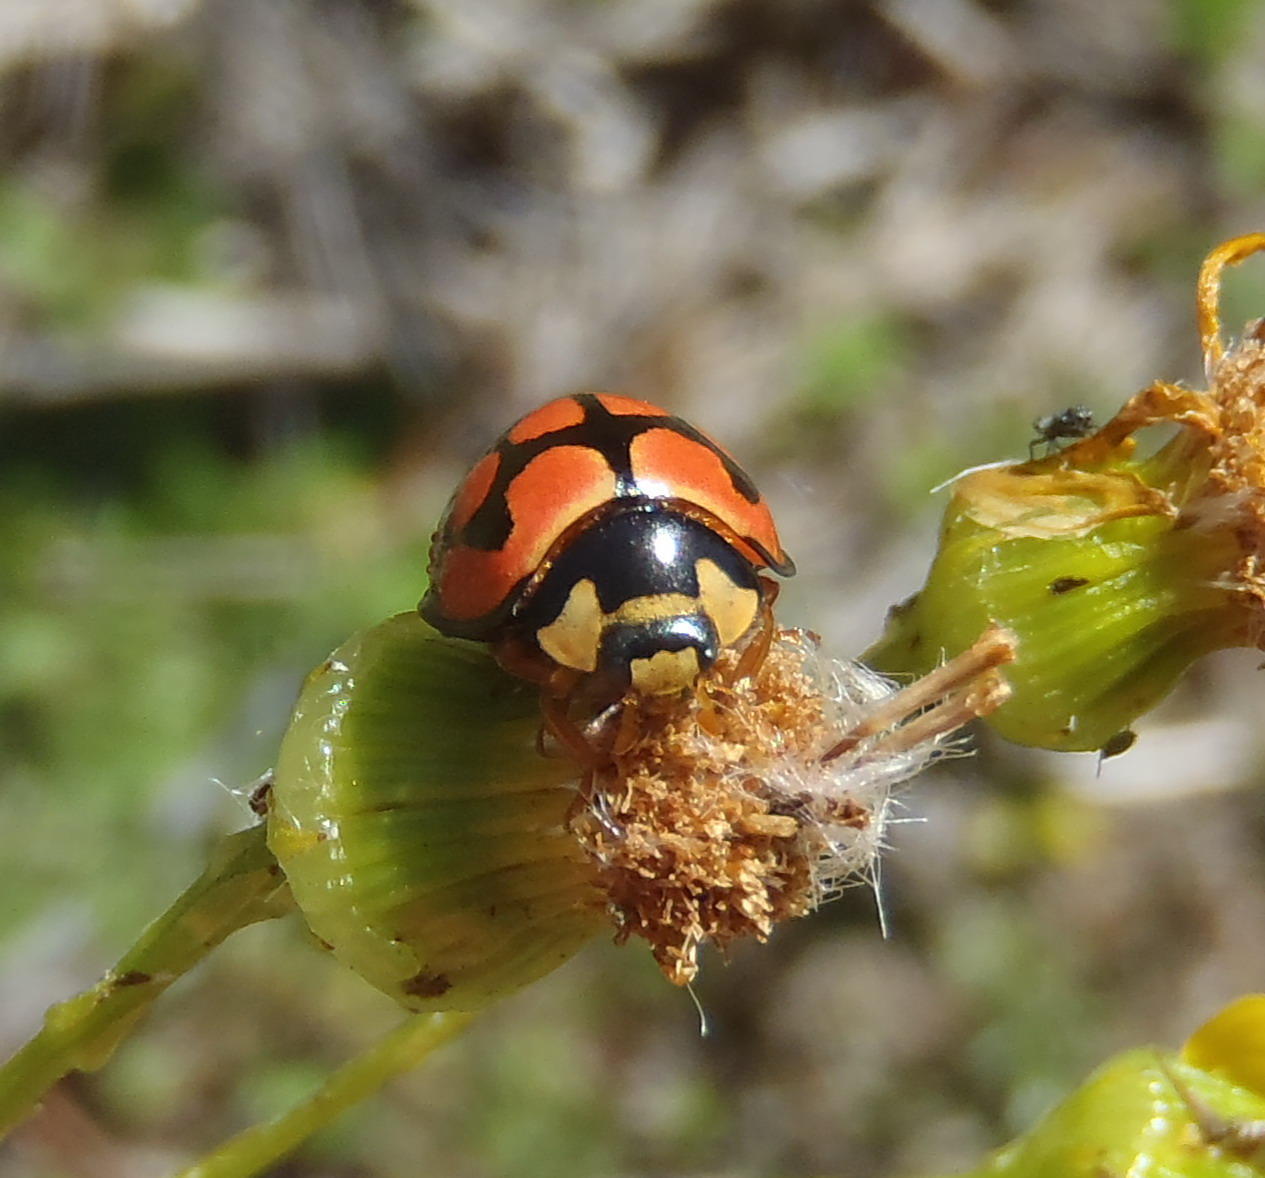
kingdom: Animalia
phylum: Arthropoda
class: Insecta
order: Coleoptera
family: Coccinellidae
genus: Cheilomenes
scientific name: Cheilomenes lunata
